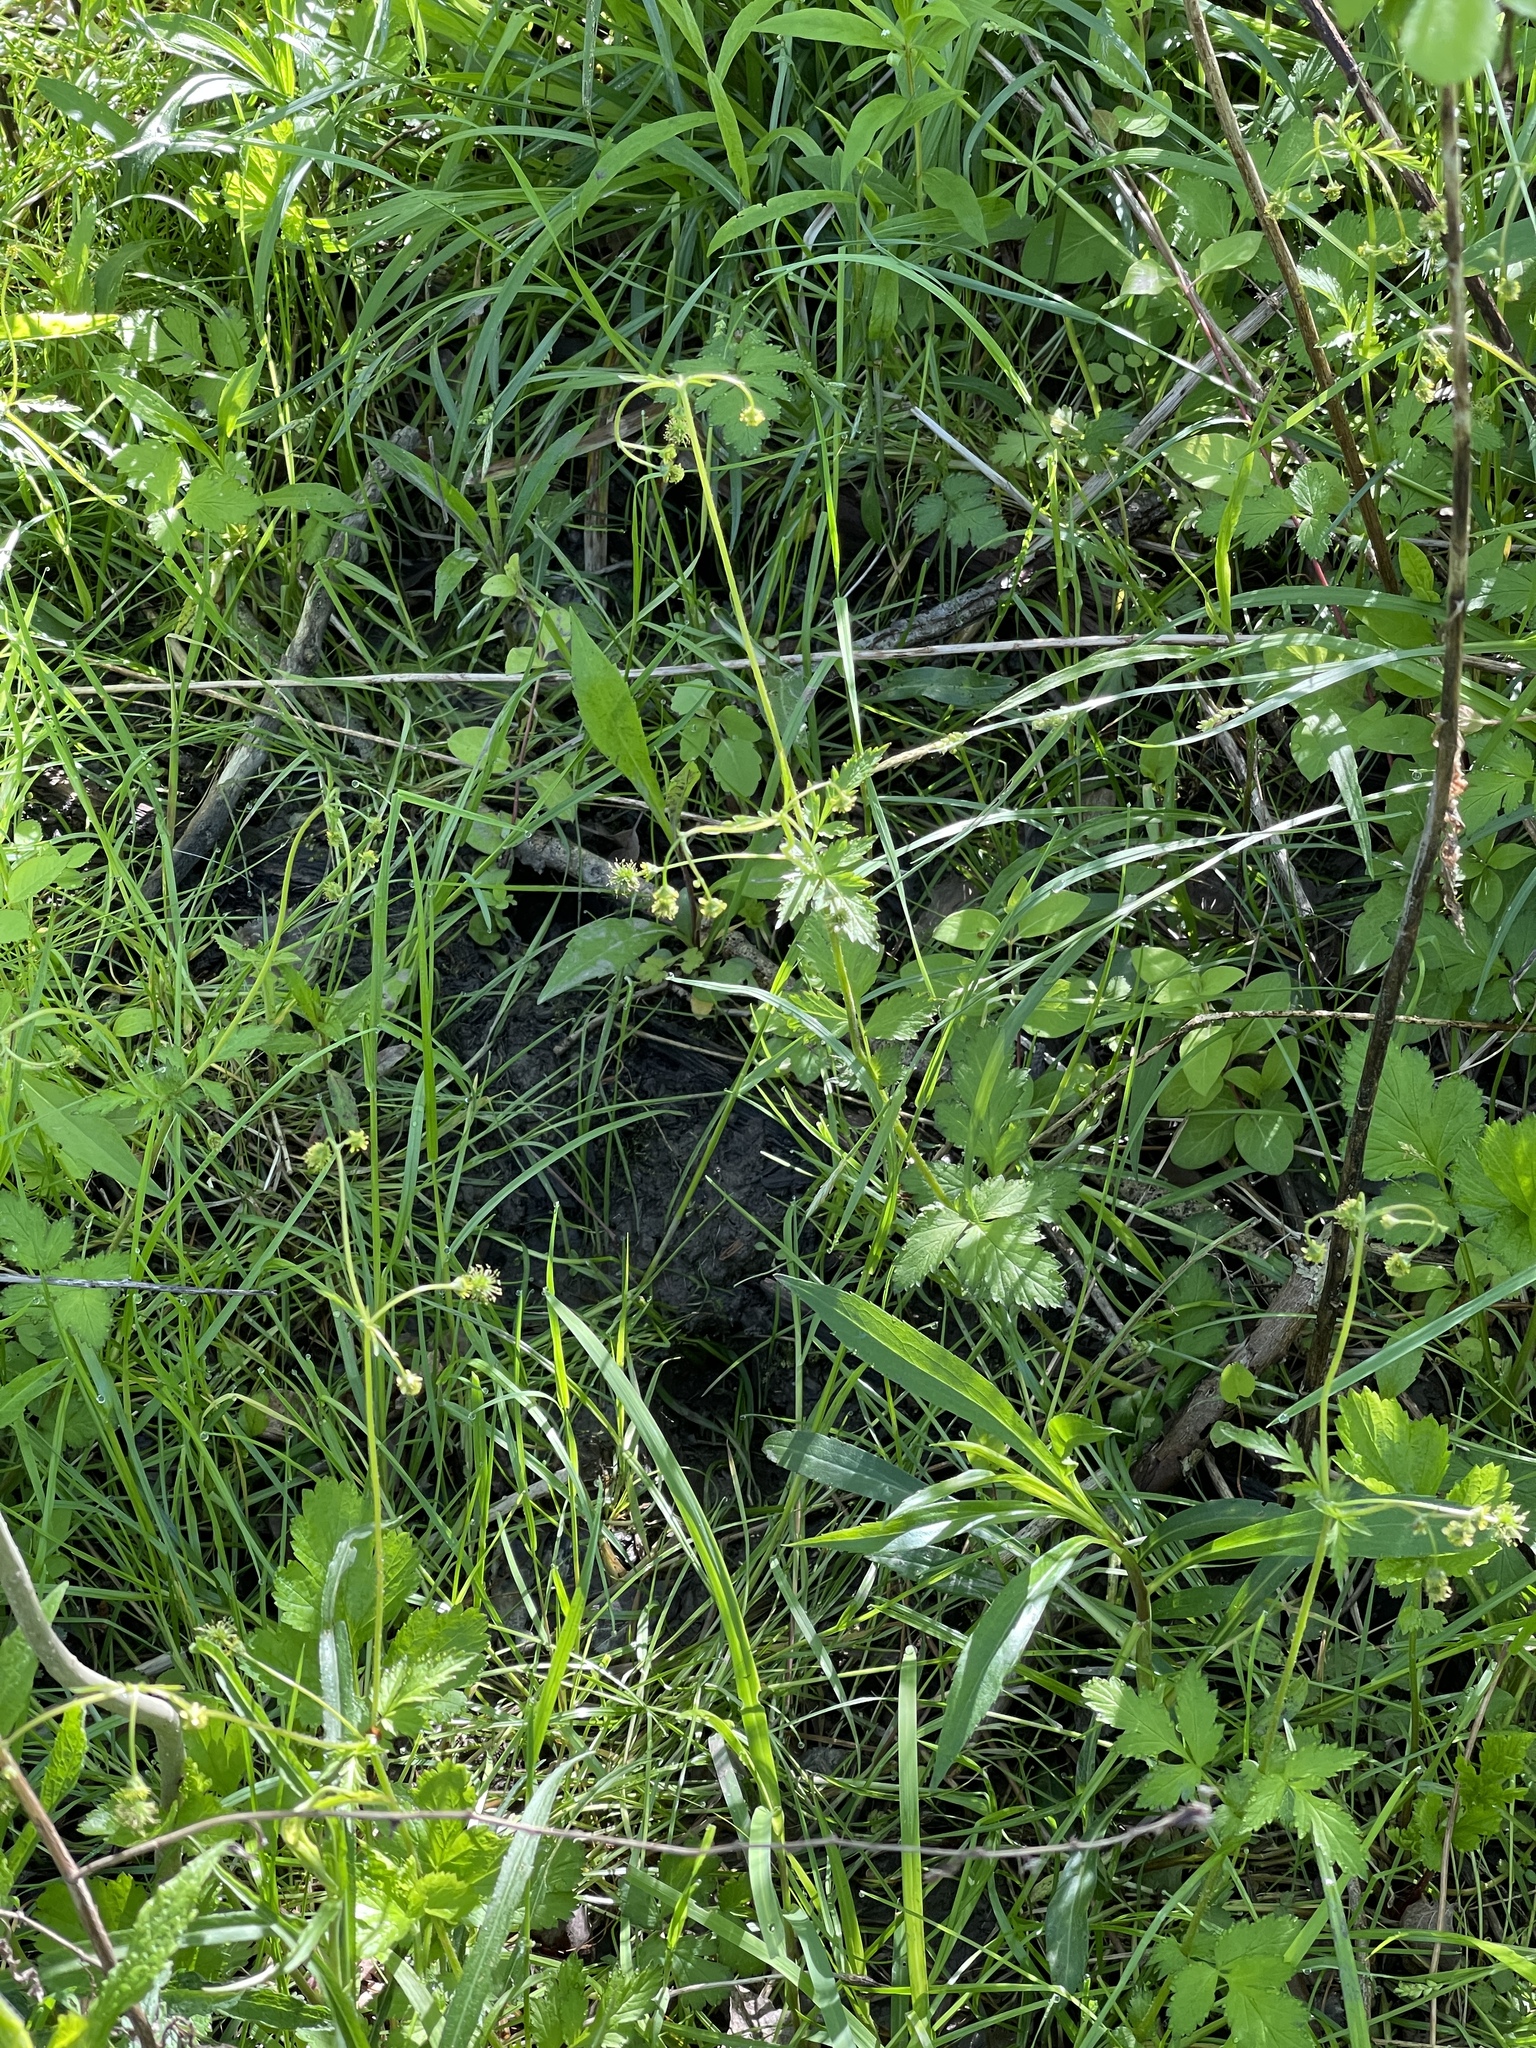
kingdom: Plantae
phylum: Tracheophyta
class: Magnoliopsida
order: Rosales
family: Rosaceae
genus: Geum
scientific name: Geum vernum
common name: Spring avens
